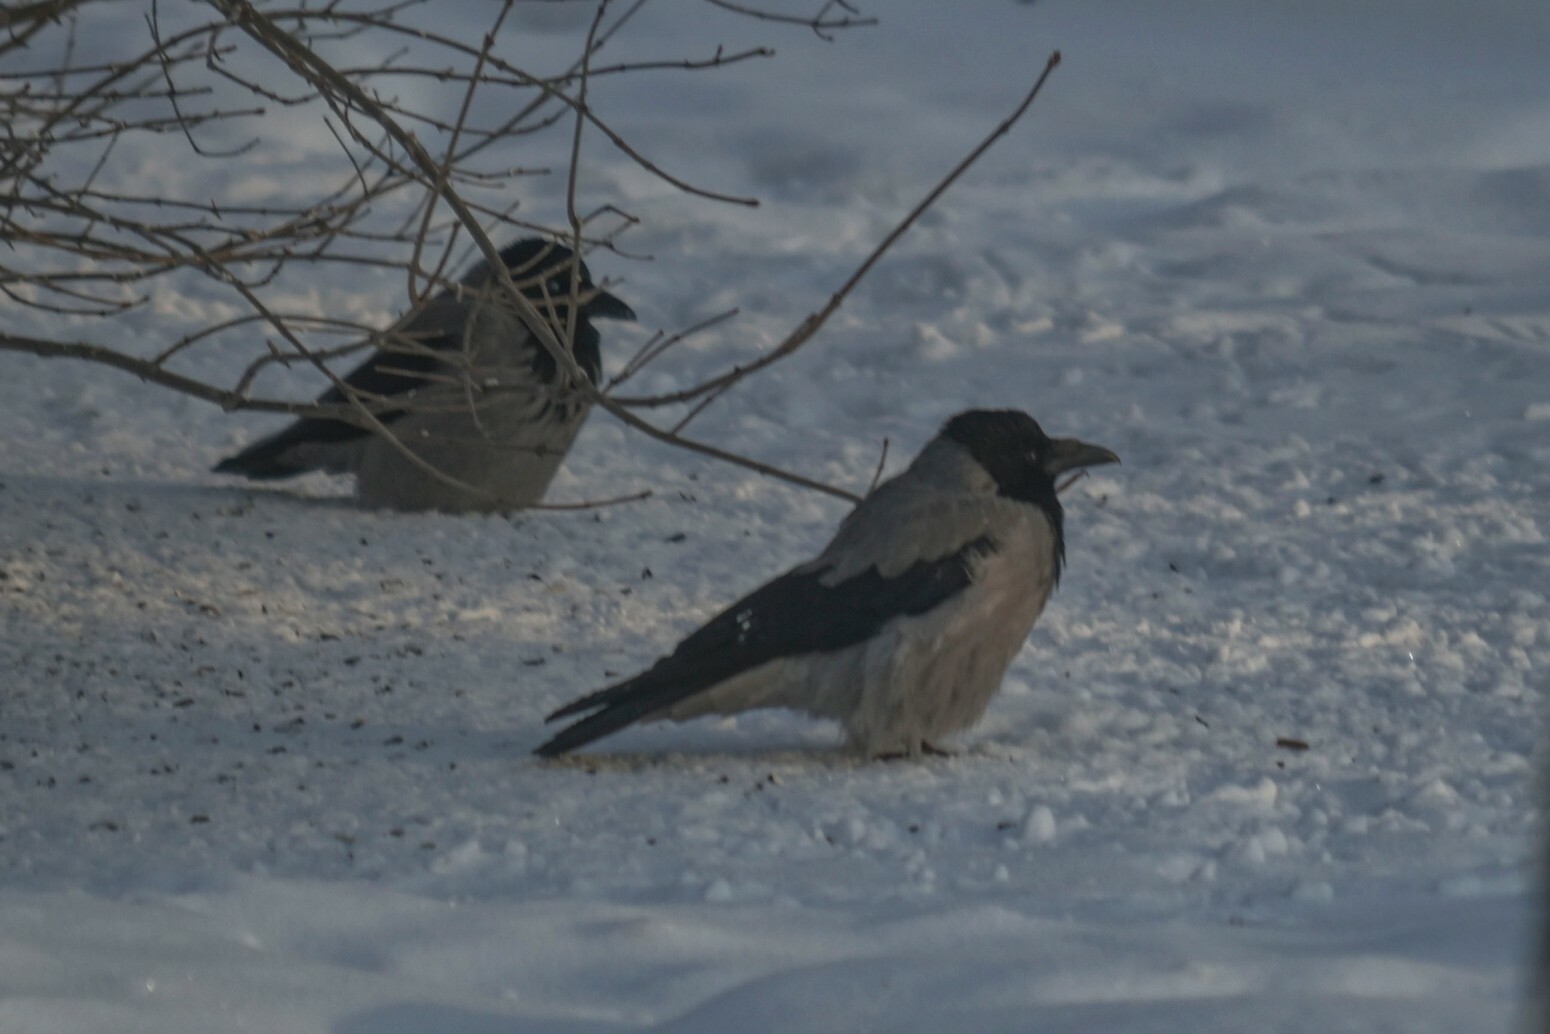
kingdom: Animalia
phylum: Chordata
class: Aves
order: Passeriformes
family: Corvidae
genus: Corvus
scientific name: Corvus cornix
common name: Hooded crow
